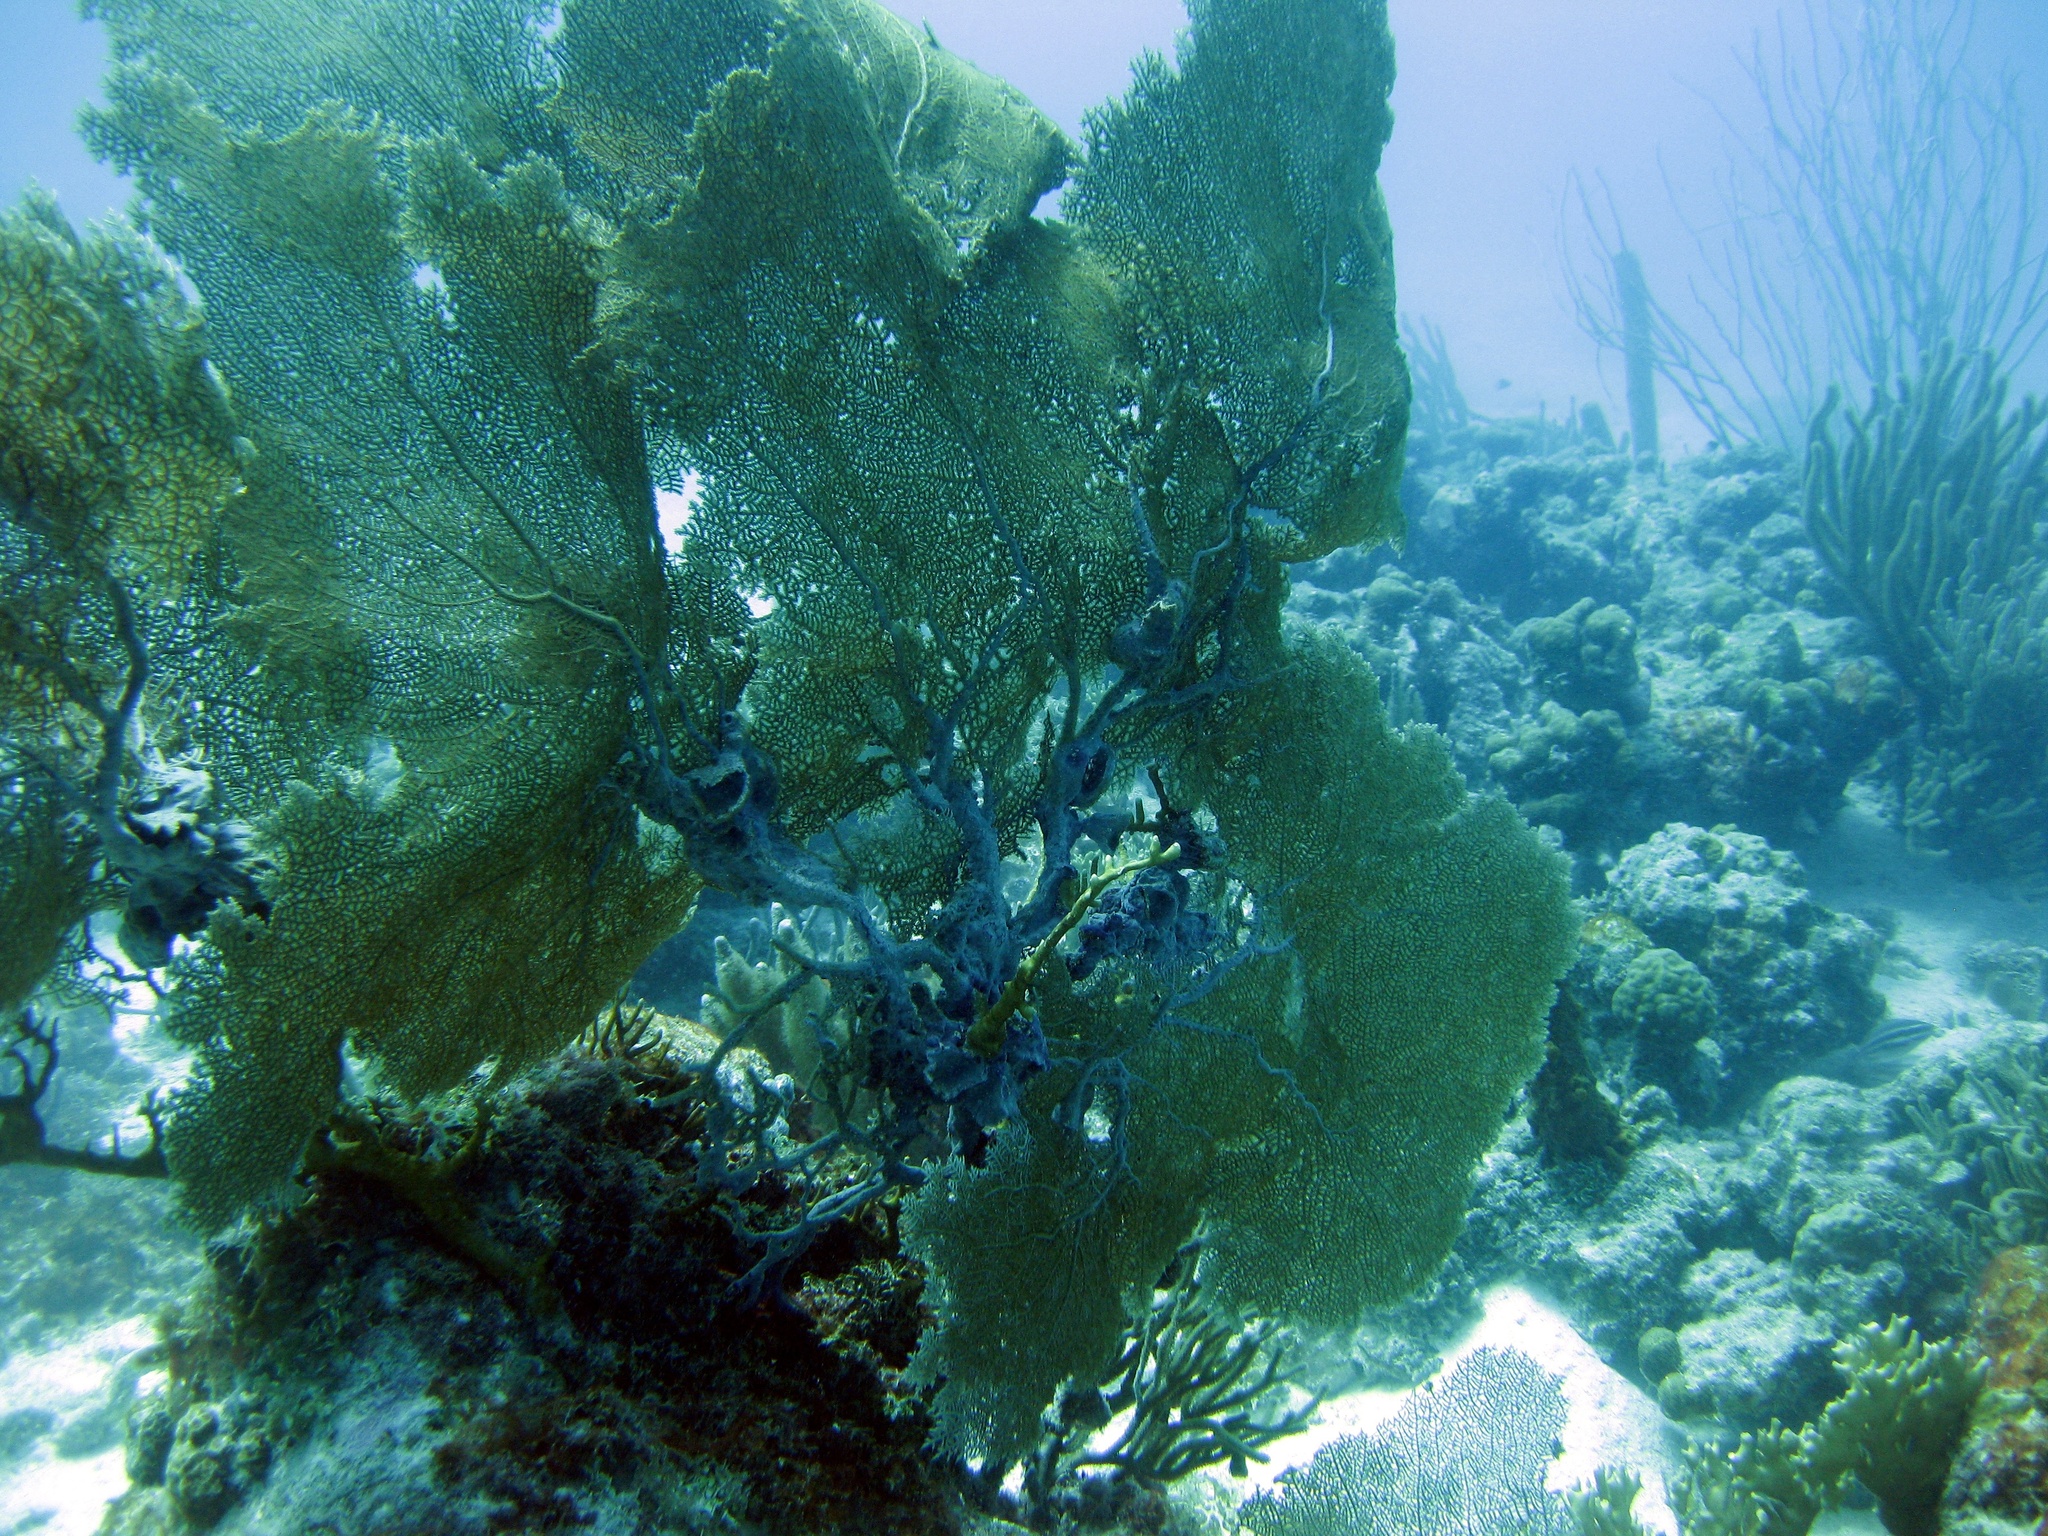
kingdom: Animalia
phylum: Cnidaria
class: Anthozoa
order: Malacalcyonacea
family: Gorgoniidae
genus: Gorgonia
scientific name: Gorgonia ventalina
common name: Common sea fan
